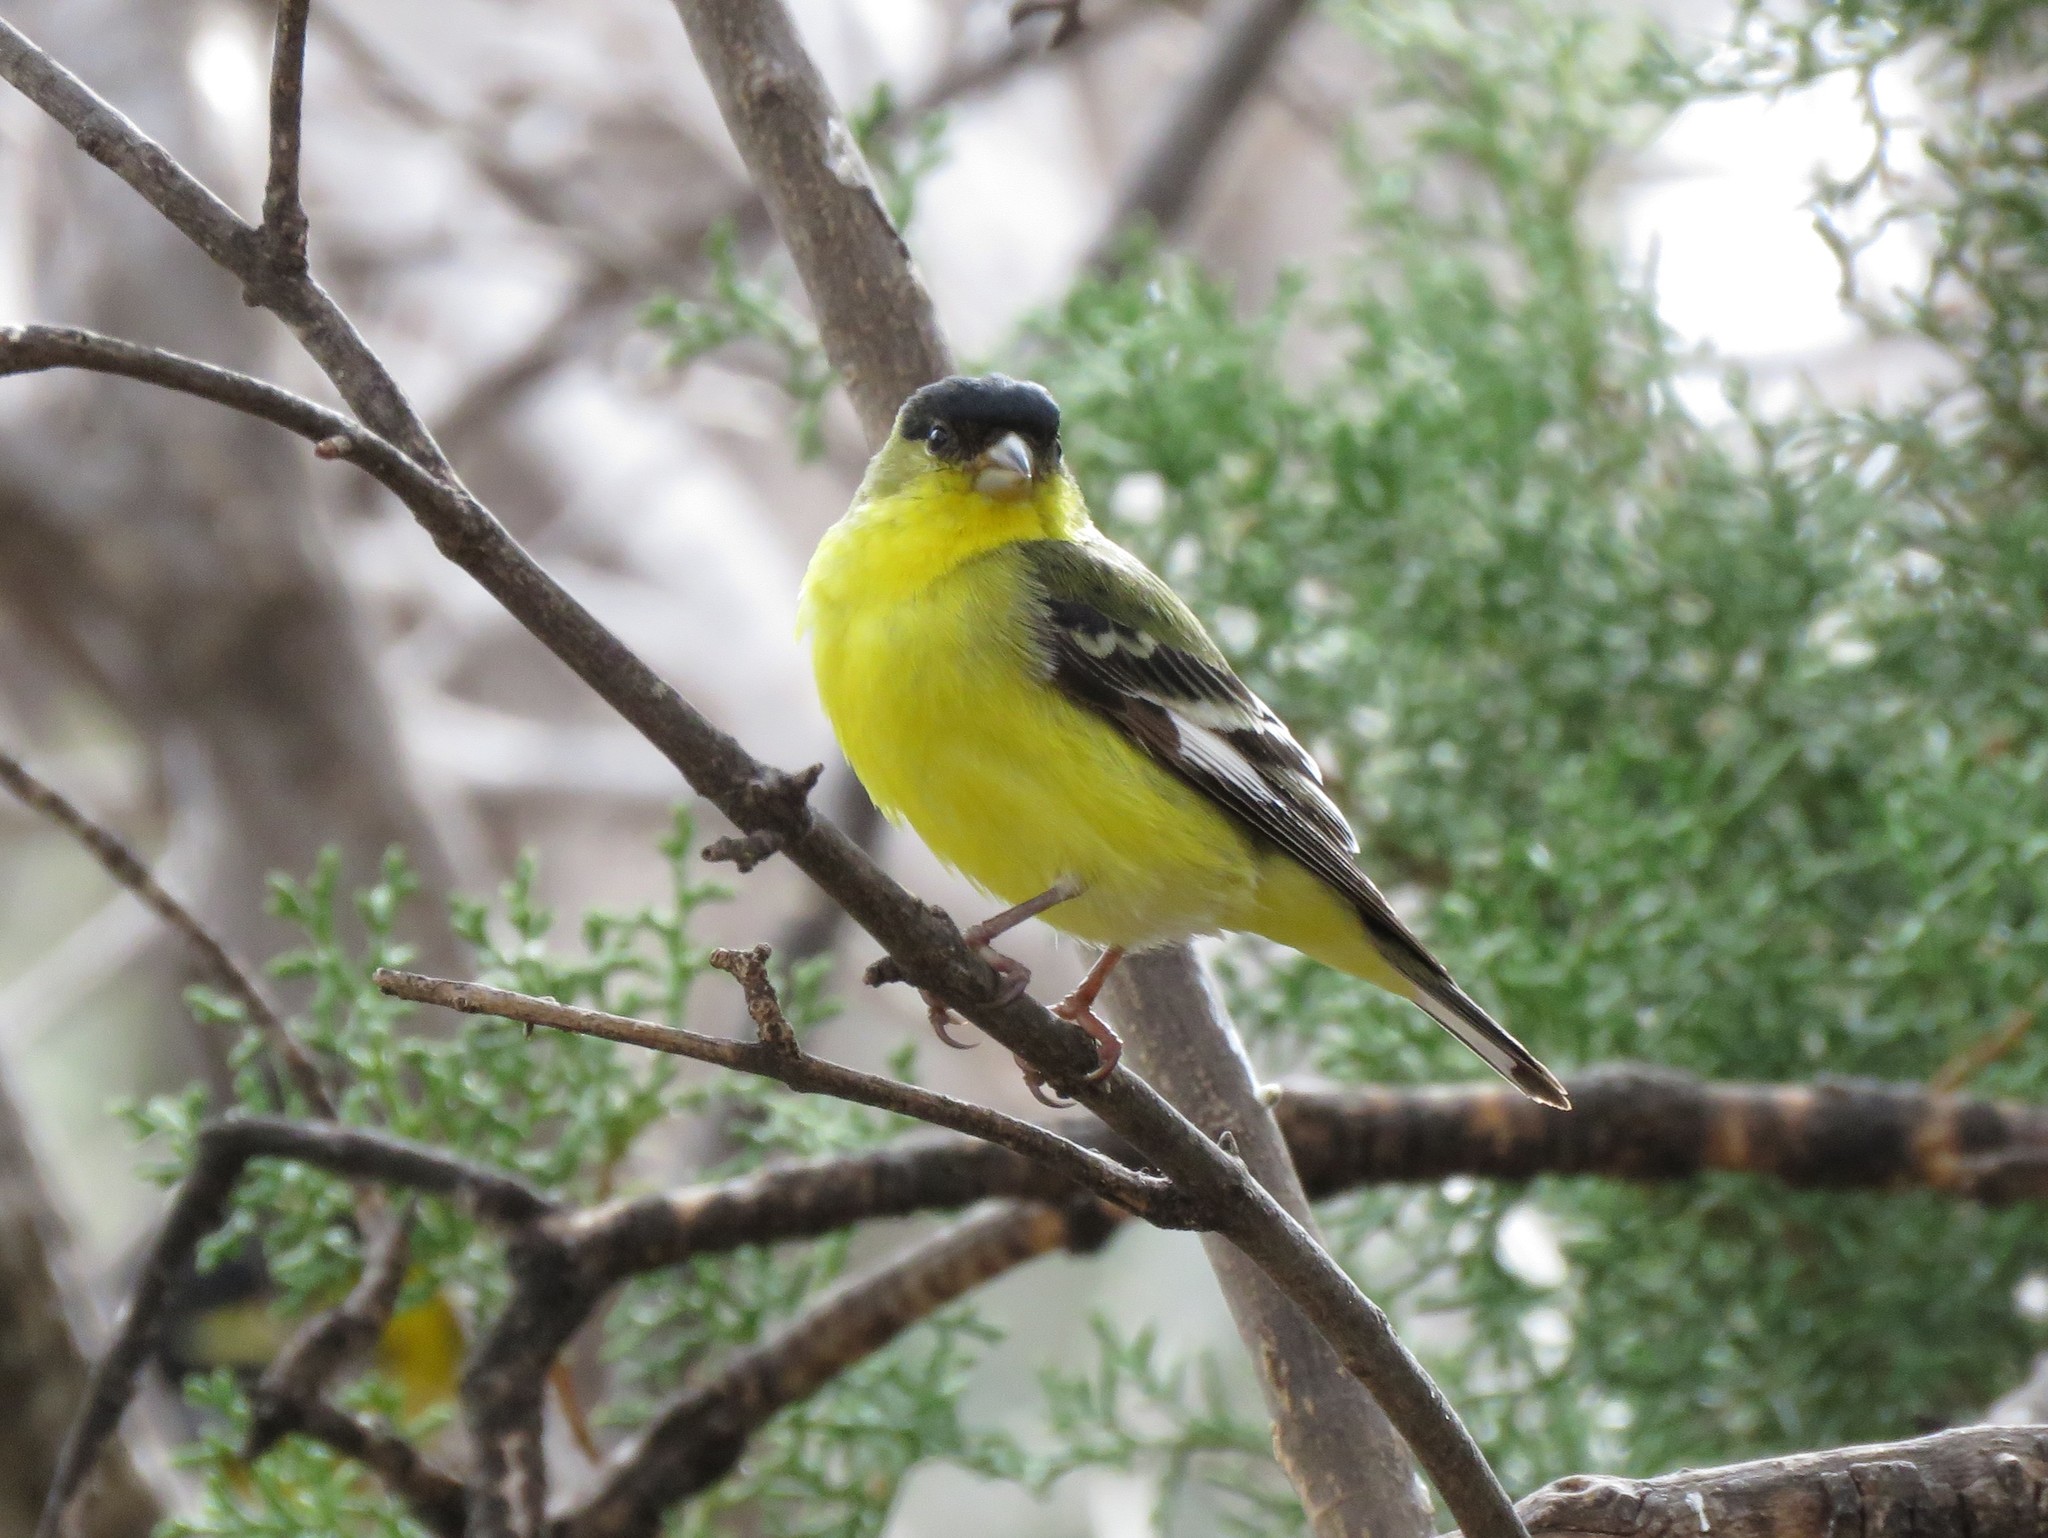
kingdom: Animalia
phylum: Chordata
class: Aves
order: Passeriformes
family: Fringillidae
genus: Spinus
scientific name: Spinus psaltria
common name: Lesser goldfinch
